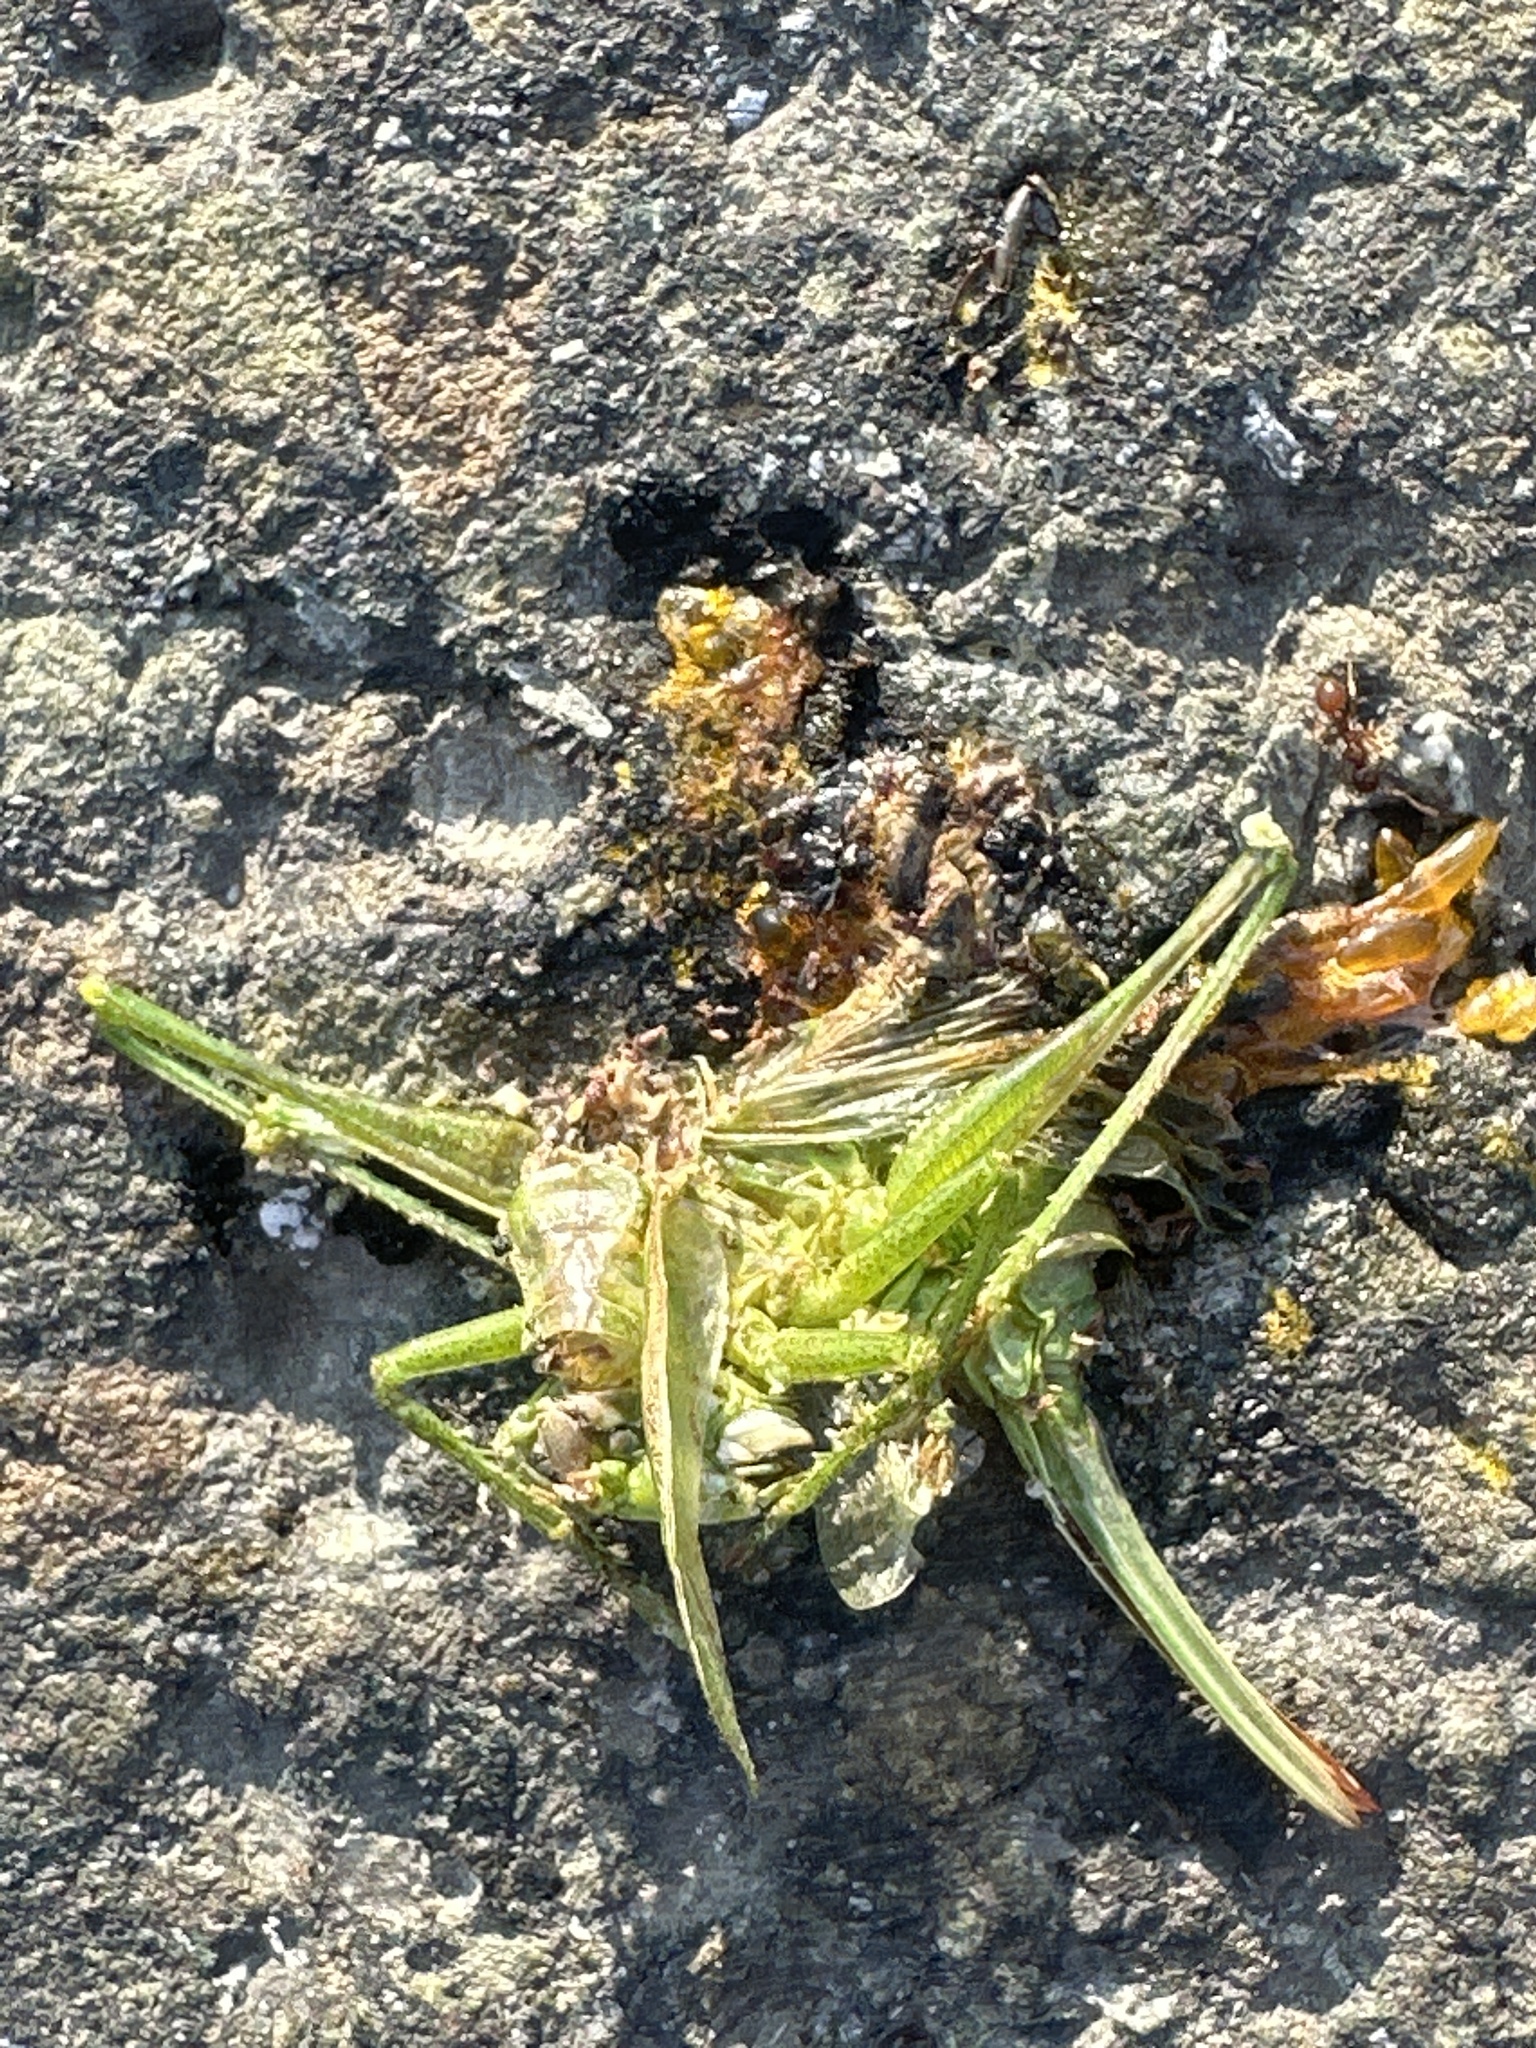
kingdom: Animalia
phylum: Arthropoda
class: Insecta
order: Orthoptera
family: Tettigoniidae
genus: Tettigonia
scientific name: Tettigonia cantans
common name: Upland green bush-cricket
